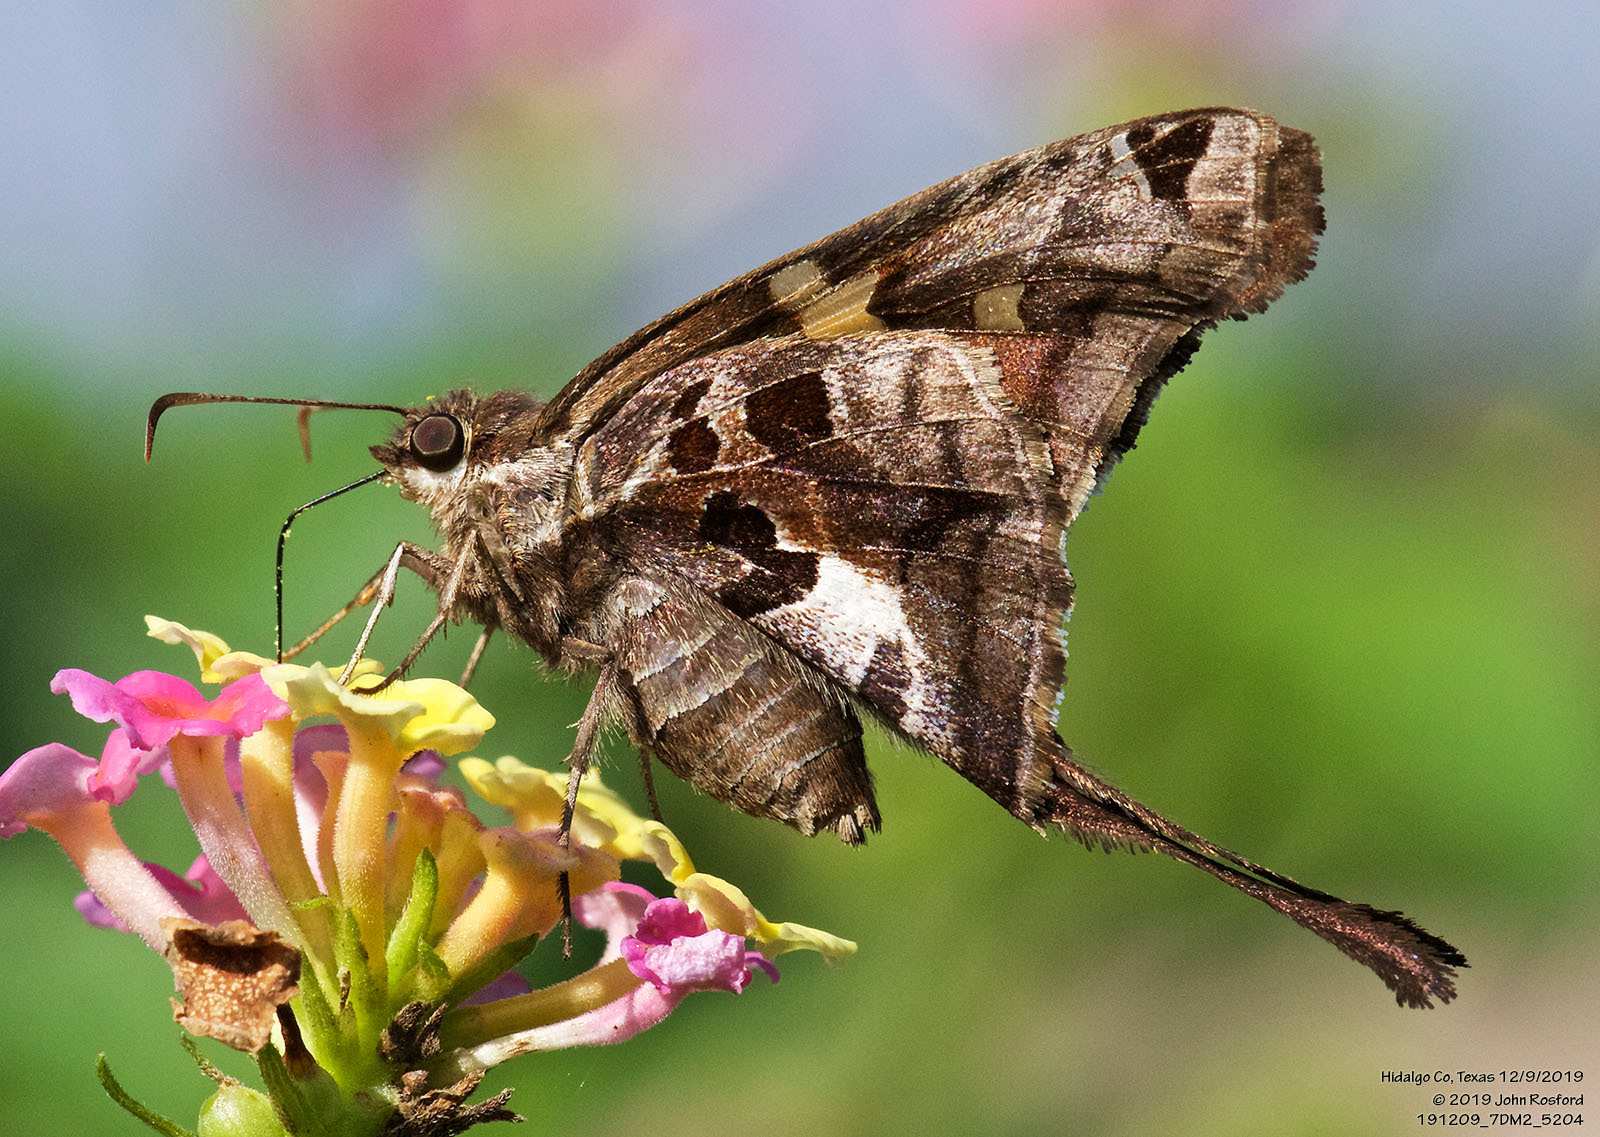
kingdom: Animalia
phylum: Arthropoda
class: Insecta
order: Lepidoptera
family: Hesperiidae
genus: Chioides
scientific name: Chioides zilpa
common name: Zilpa longtail
